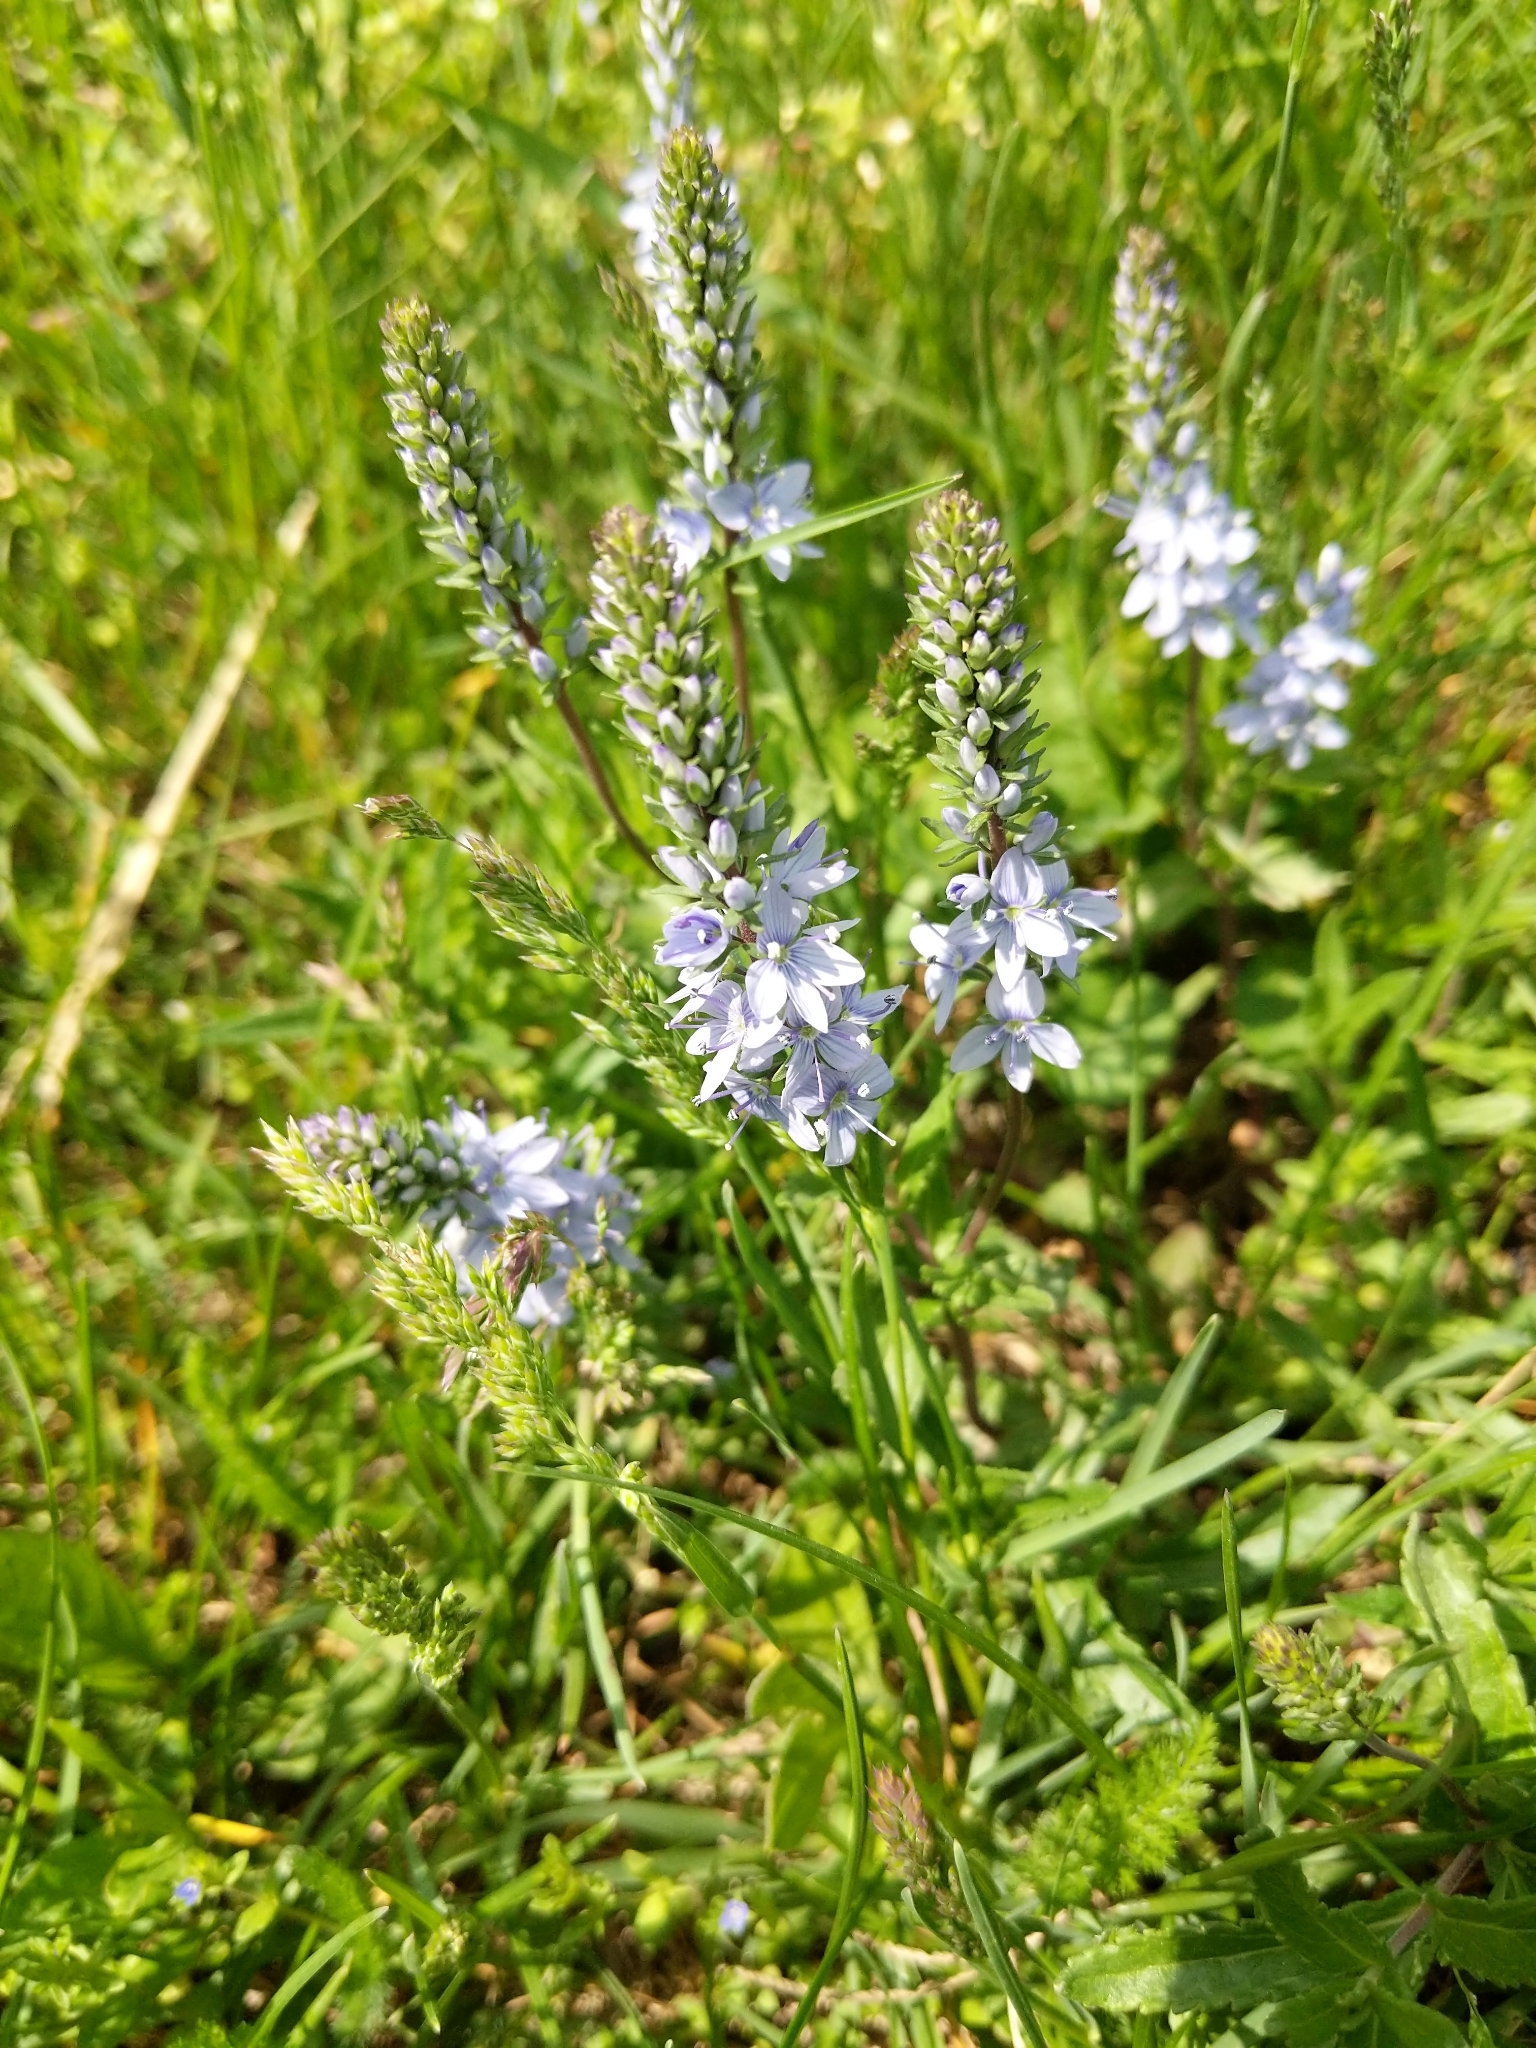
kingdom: Plantae
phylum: Tracheophyta
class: Magnoliopsida
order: Lamiales
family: Plantaginaceae
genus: Veronica
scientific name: Veronica austriaca
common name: Large speedwell
